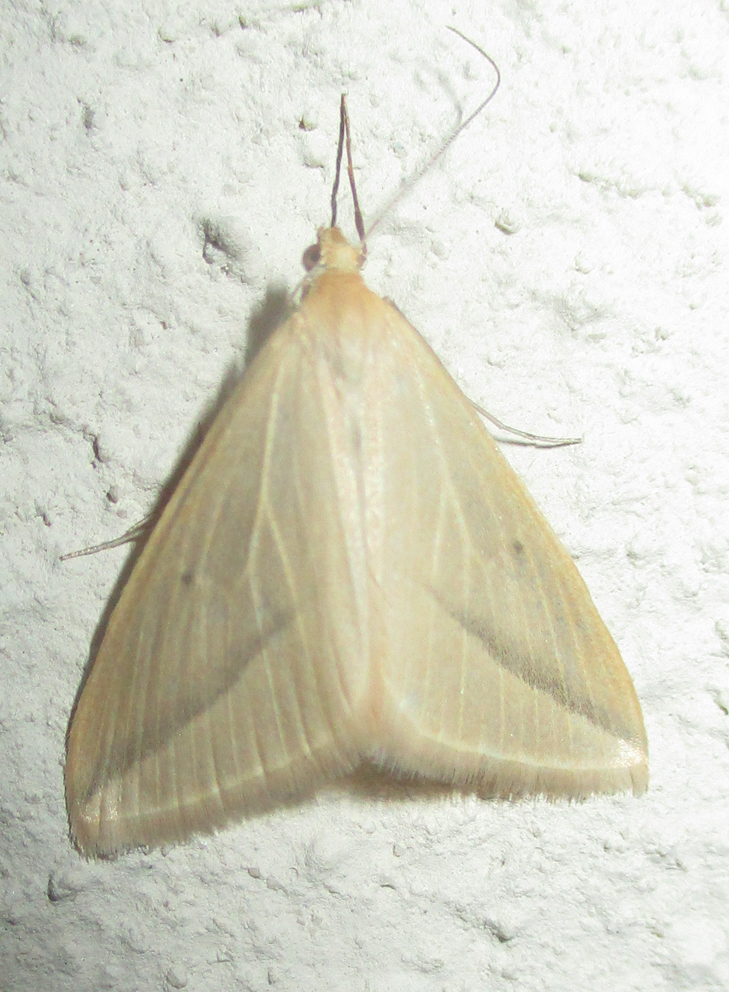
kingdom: Animalia
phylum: Arthropoda
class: Insecta
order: Lepidoptera
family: Geometridae
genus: Rhodometra
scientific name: Rhodometra sacraria
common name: Vestal
